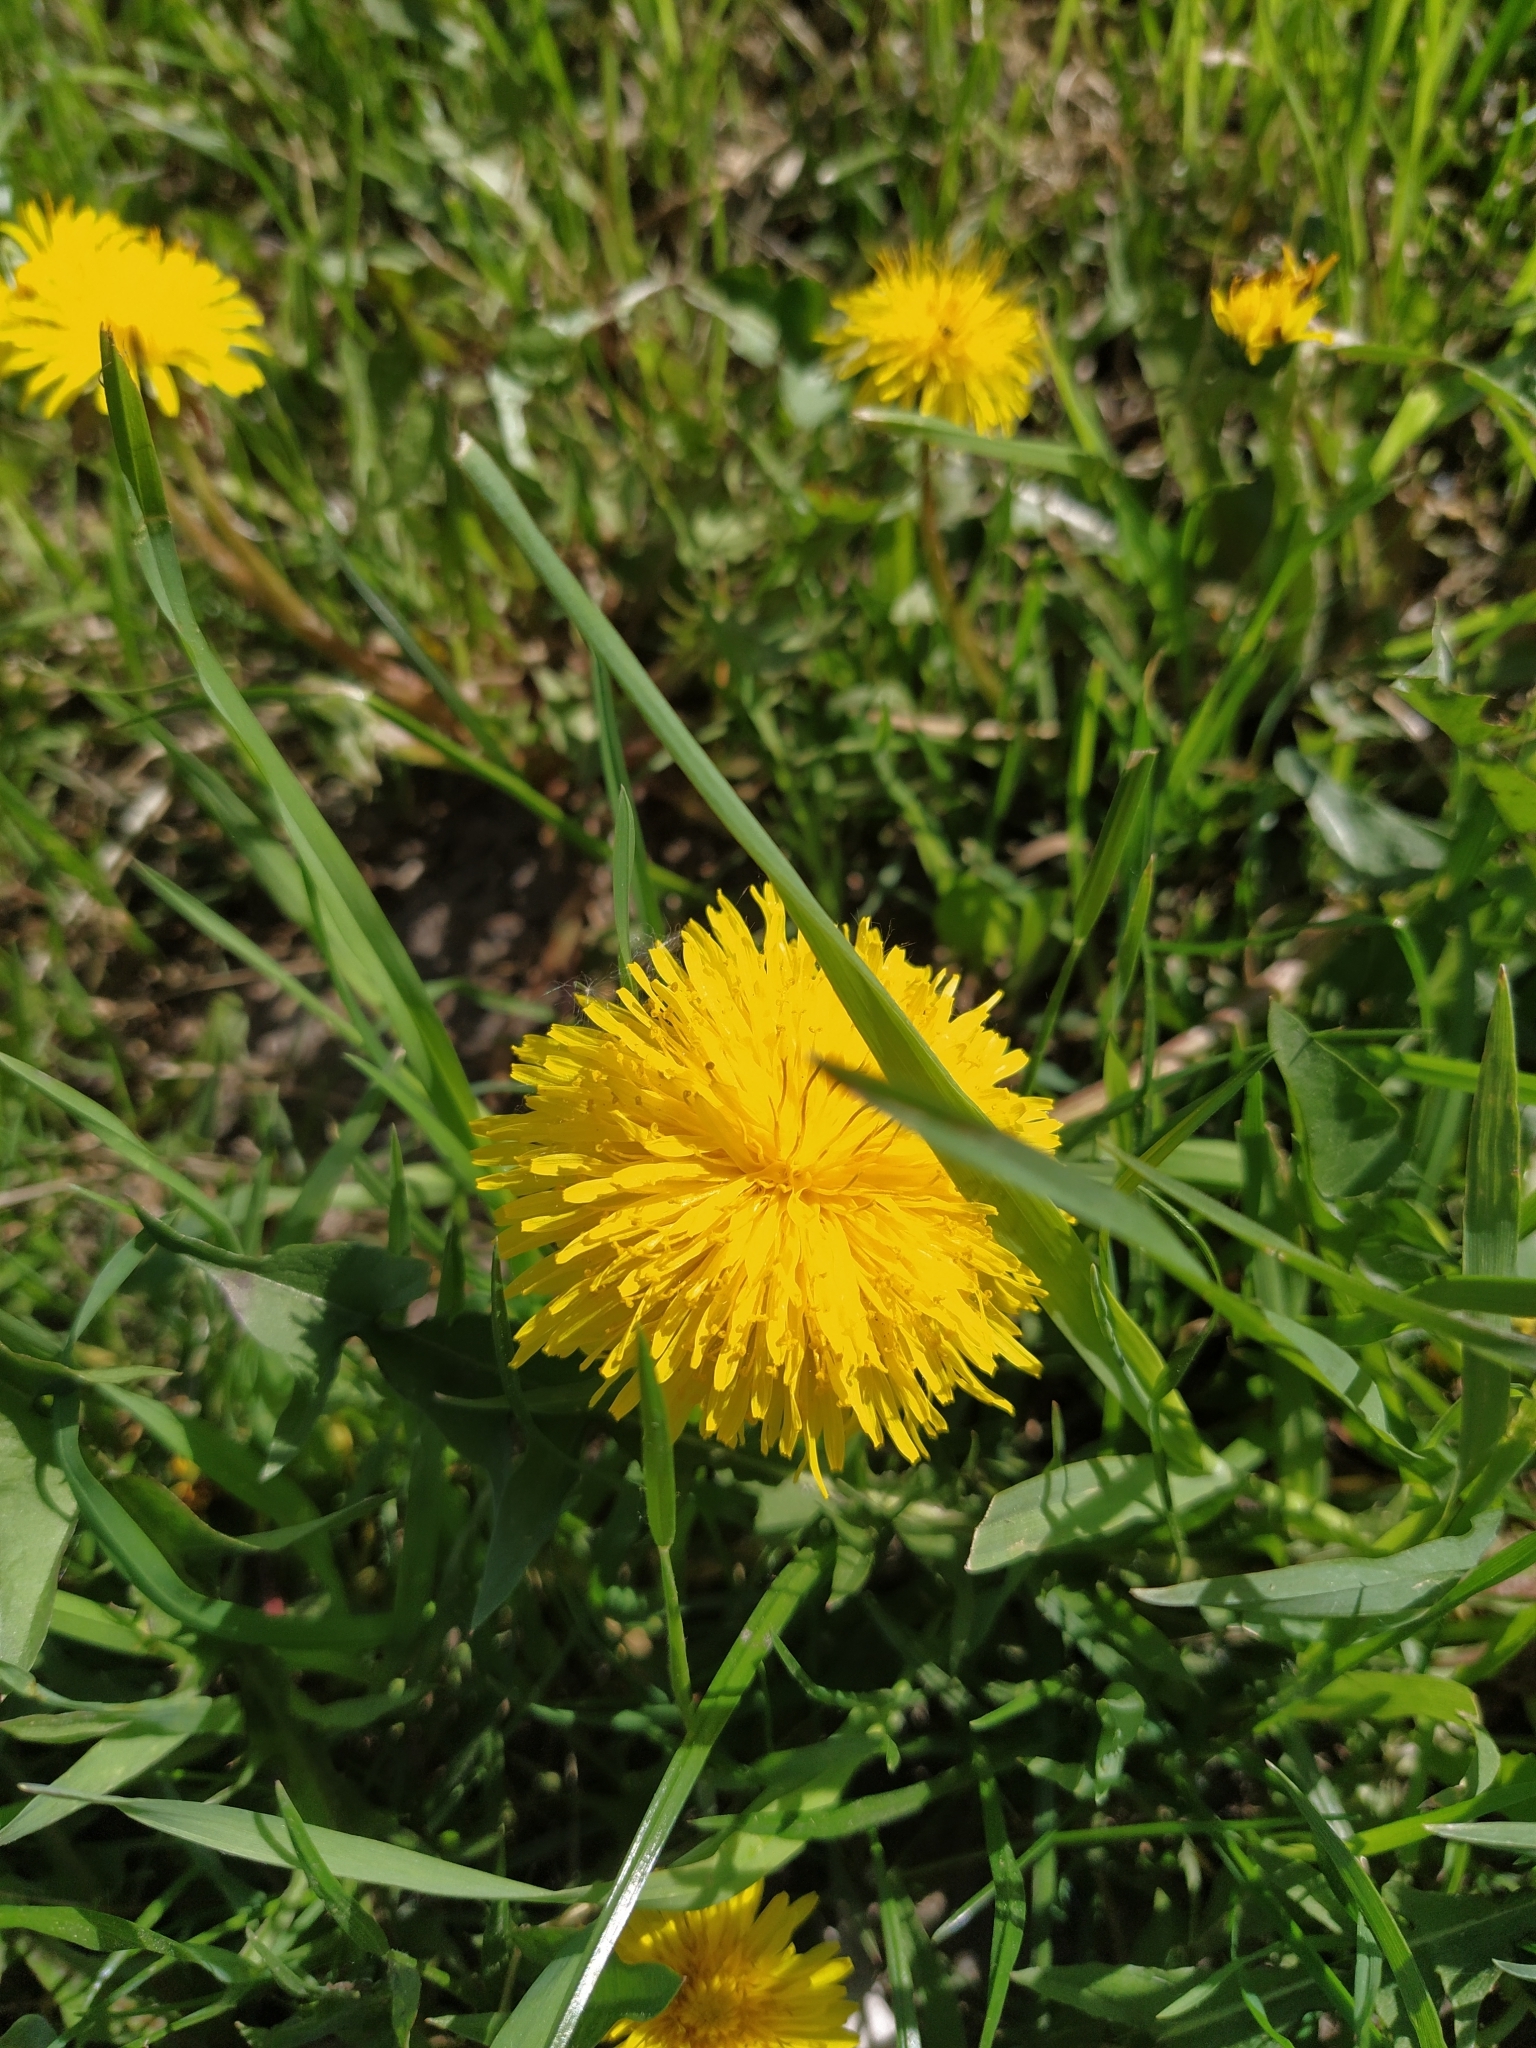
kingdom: Plantae
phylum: Tracheophyta
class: Magnoliopsida
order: Asterales
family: Asteraceae
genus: Taraxacum
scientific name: Taraxacum officinale
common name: Common dandelion
